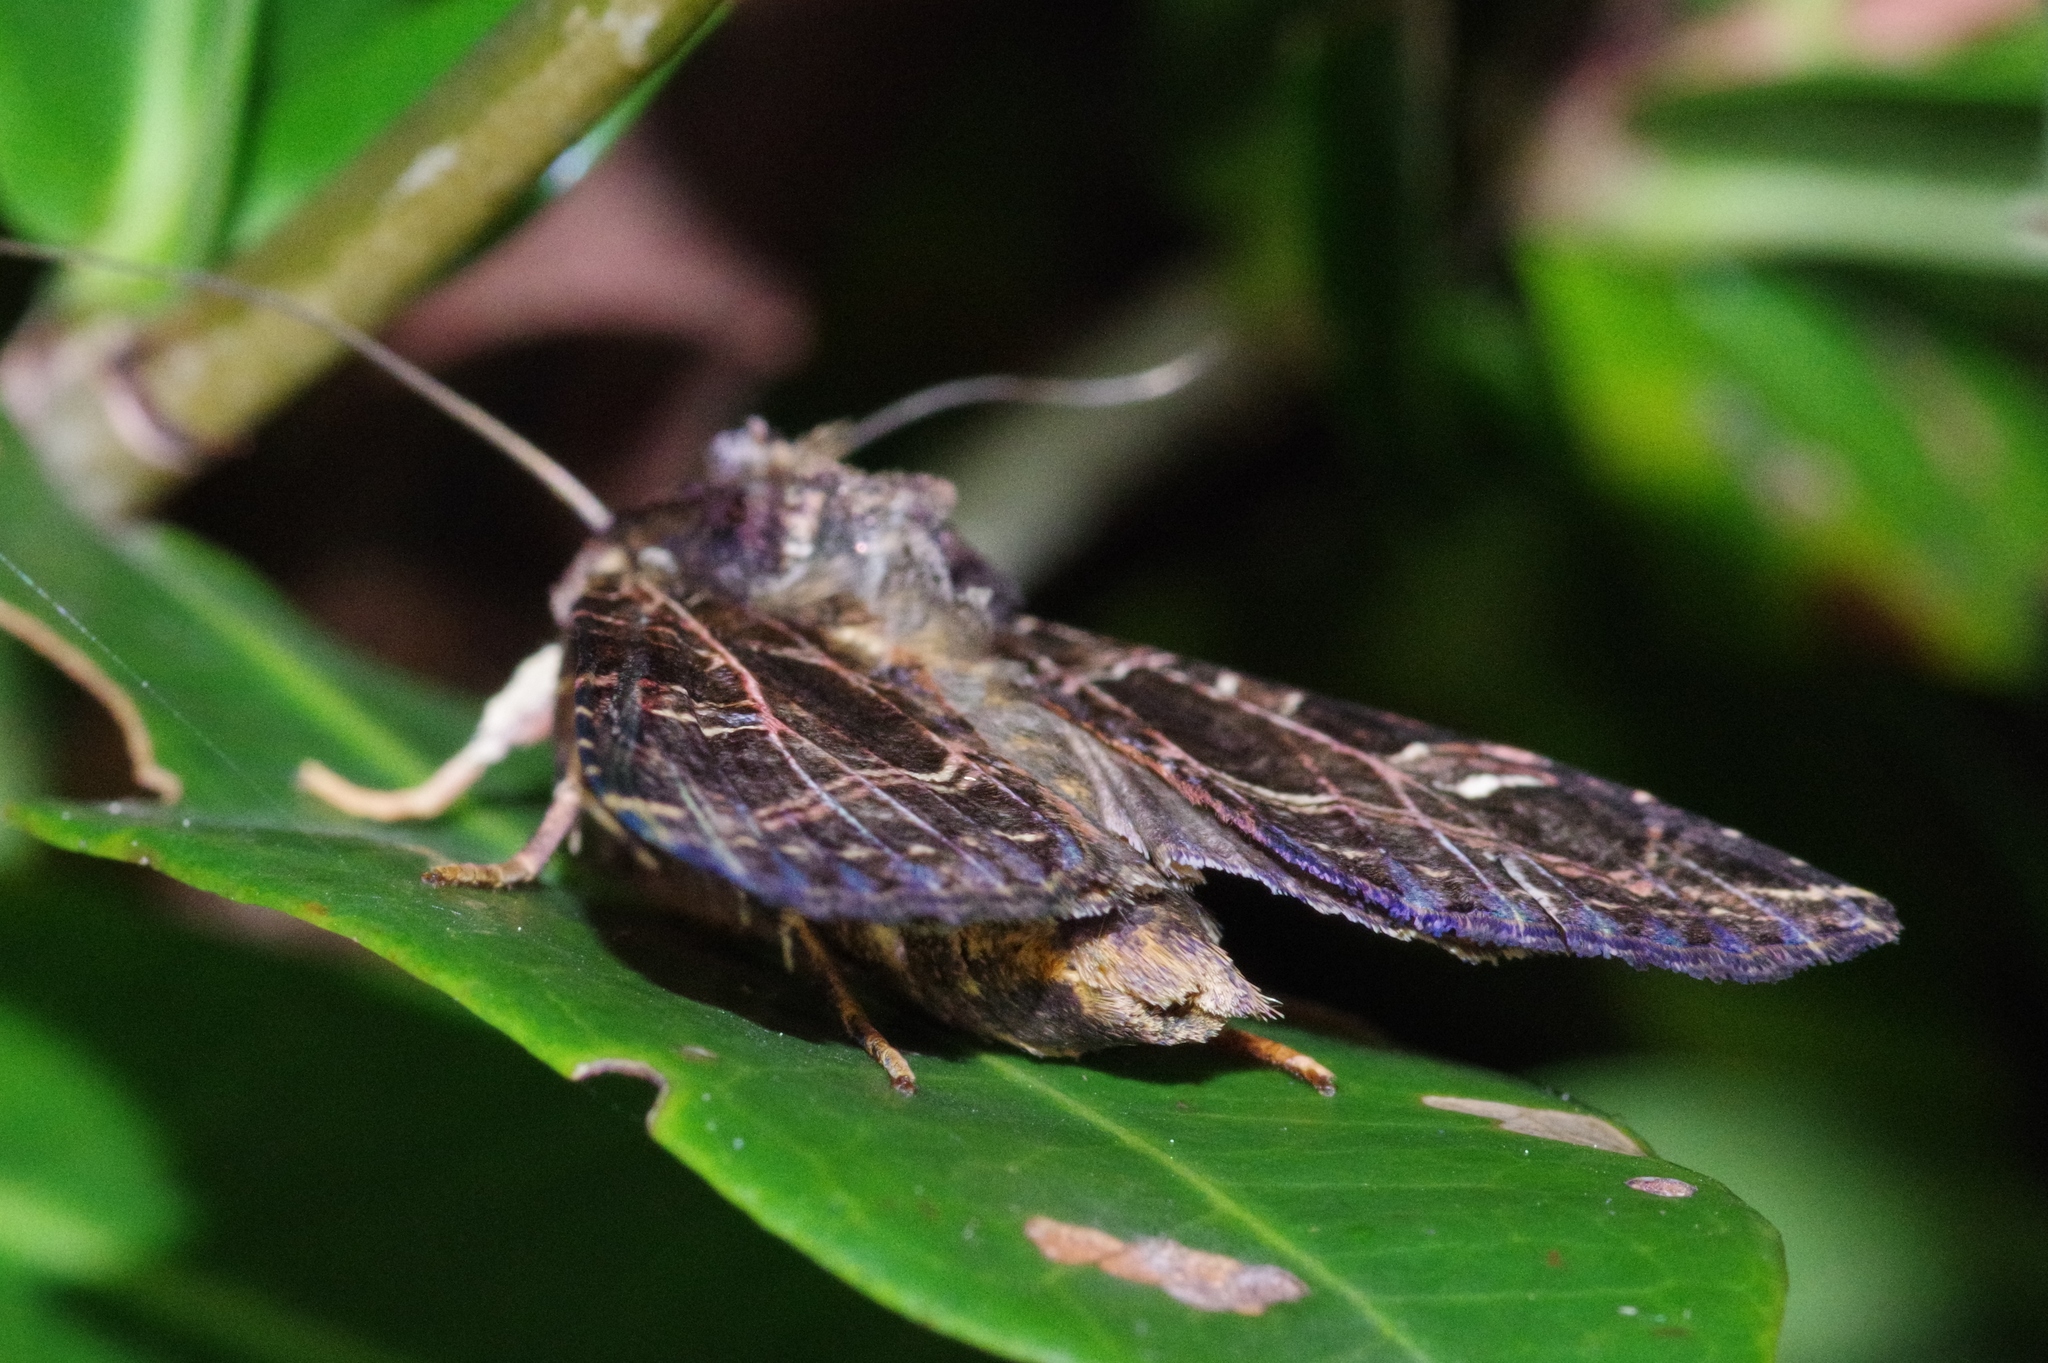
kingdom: Animalia
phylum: Arthropoda
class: Insecta
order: Lepidoptera
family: Noctuidae
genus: Dictyestra
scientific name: Dictyestra dissectus
